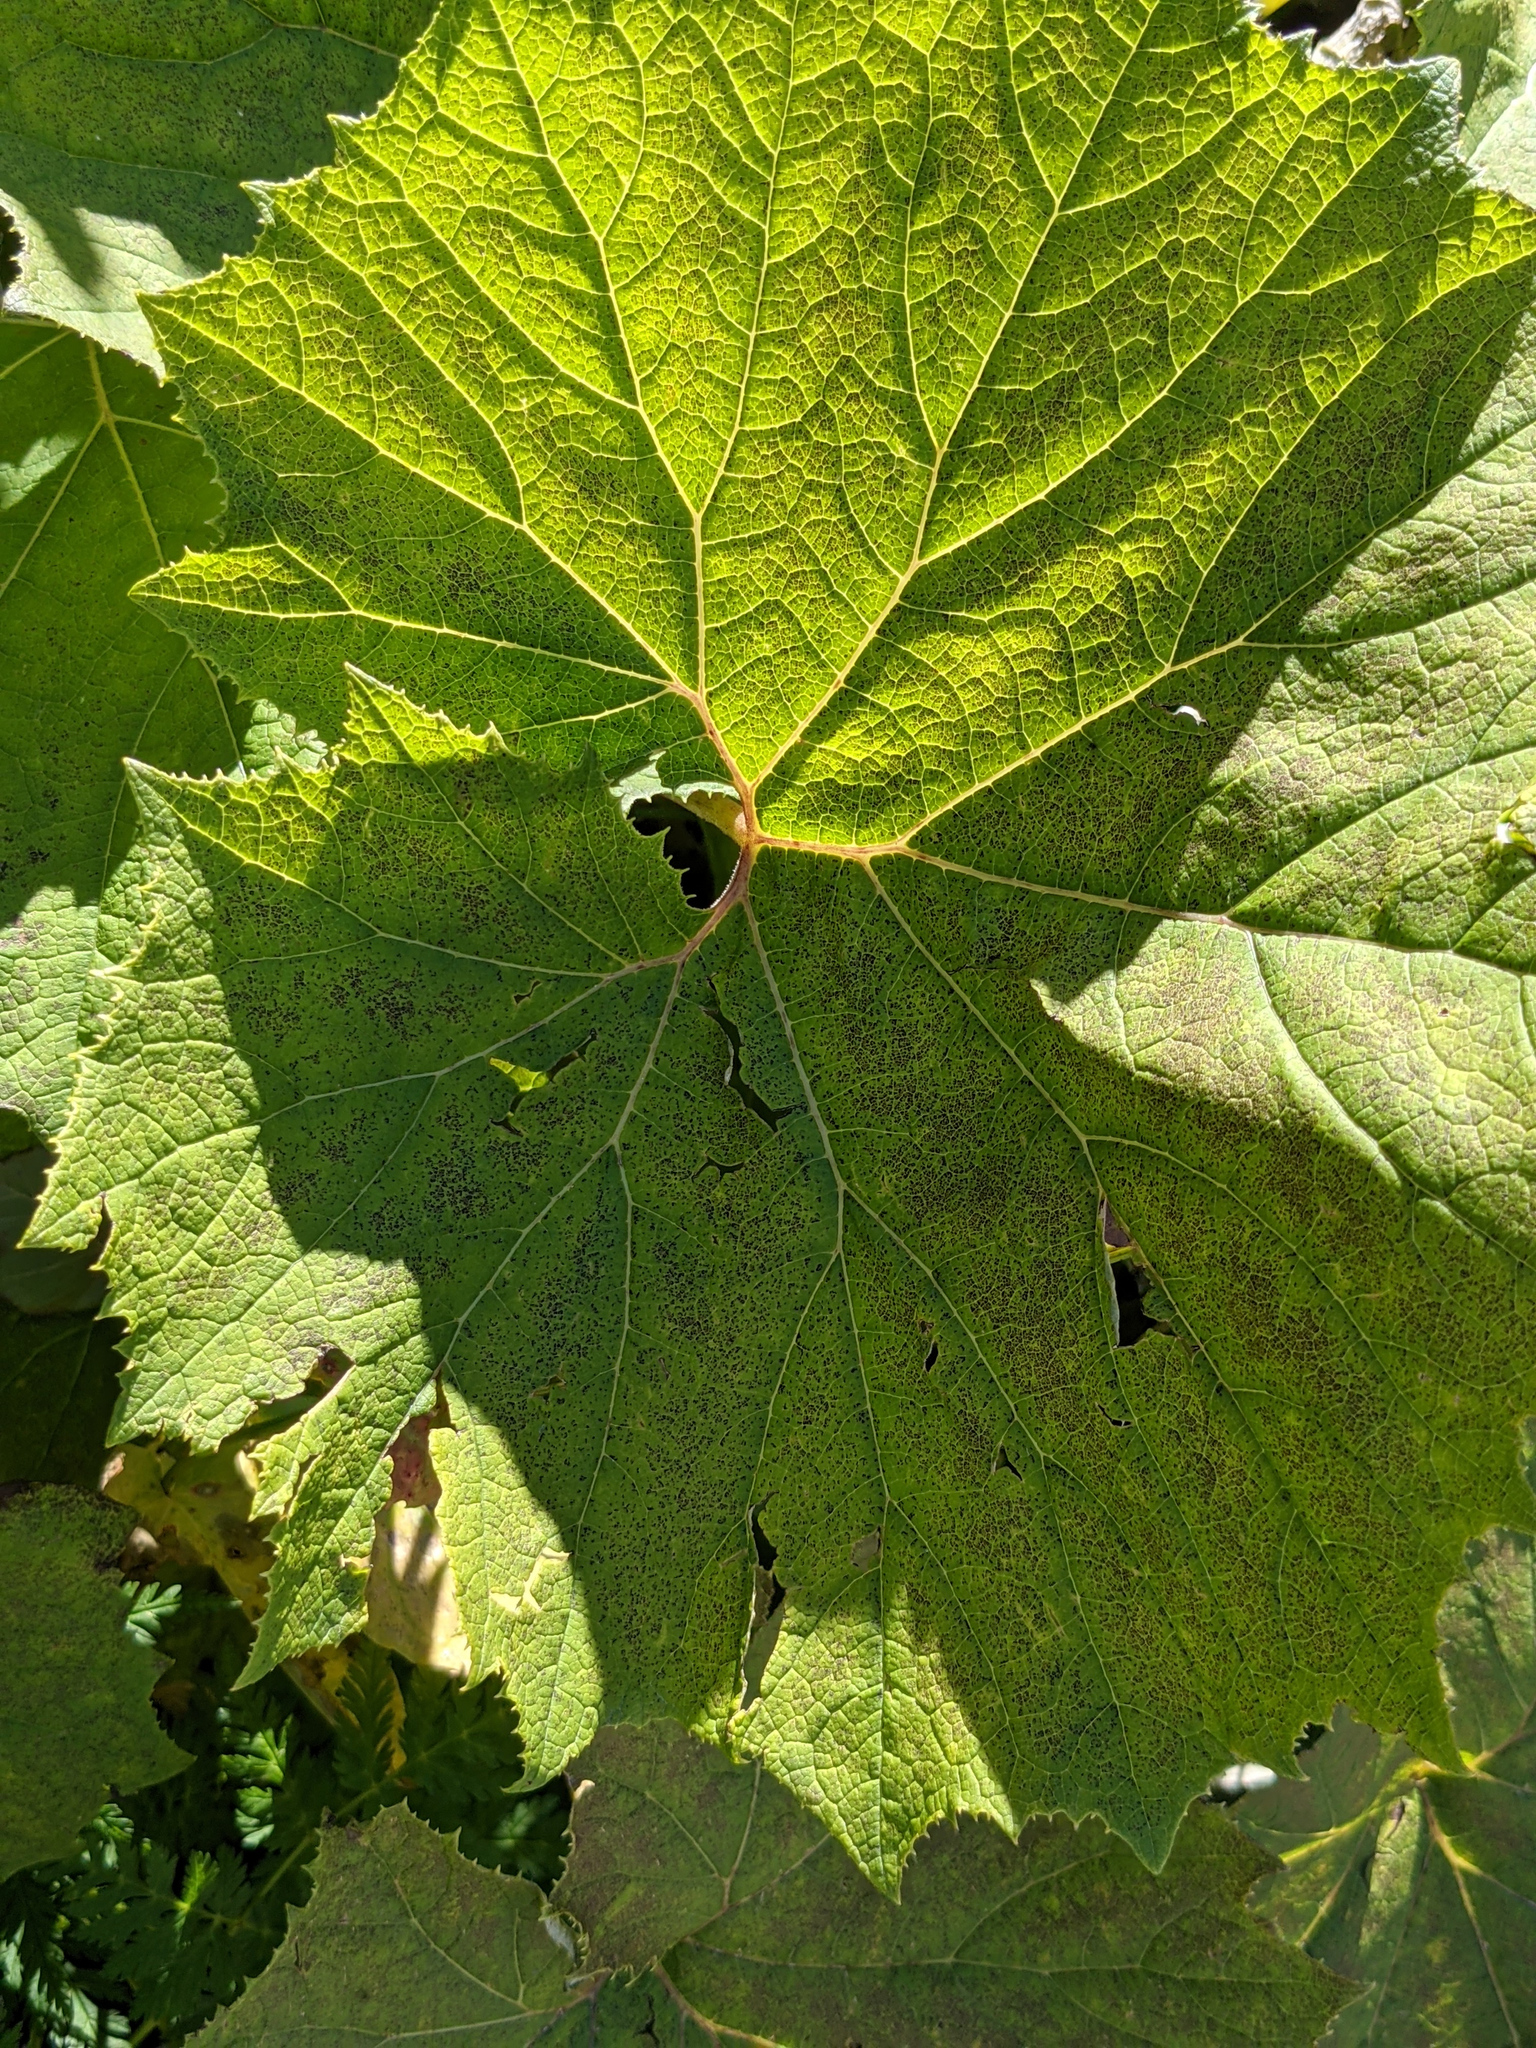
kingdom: Plantae
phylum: Tracheophyta
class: Magnoliopsida
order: Asterales
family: Asteraceae
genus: Petasites
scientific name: Petasites albus
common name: White butterbur
